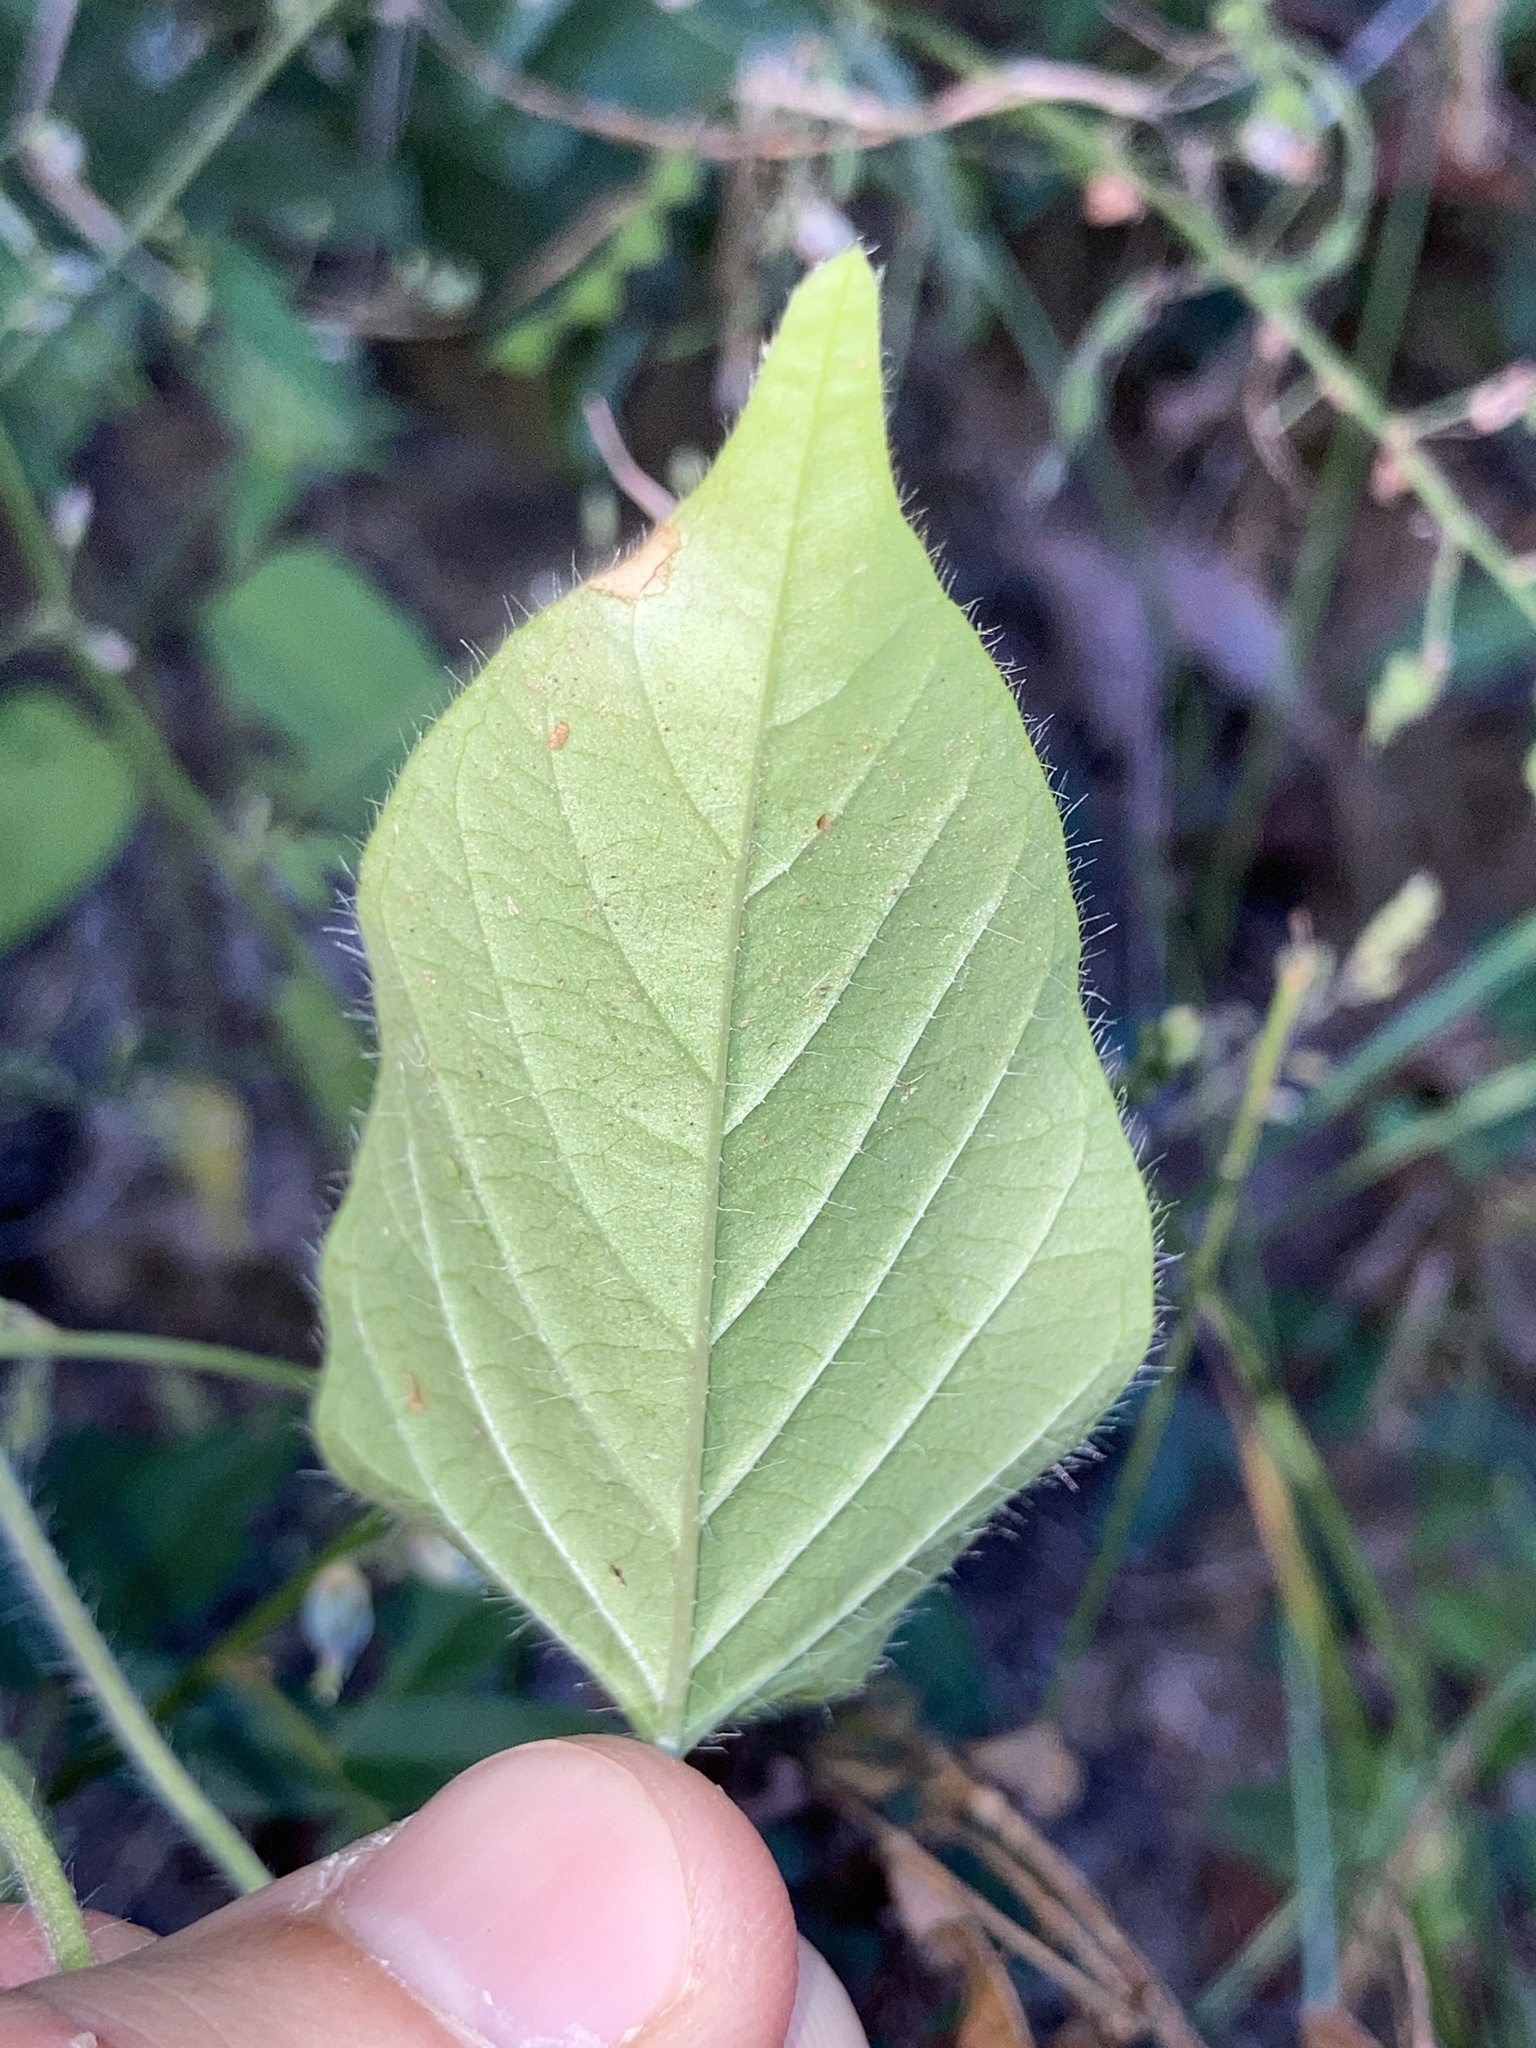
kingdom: Plantae
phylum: Tracheophyta
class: Magnoliopsida
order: Solanales
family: Convolvulaceae
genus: Jacquemontia
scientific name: Jacquemontia tamnifolia
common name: Hairy clustervine
